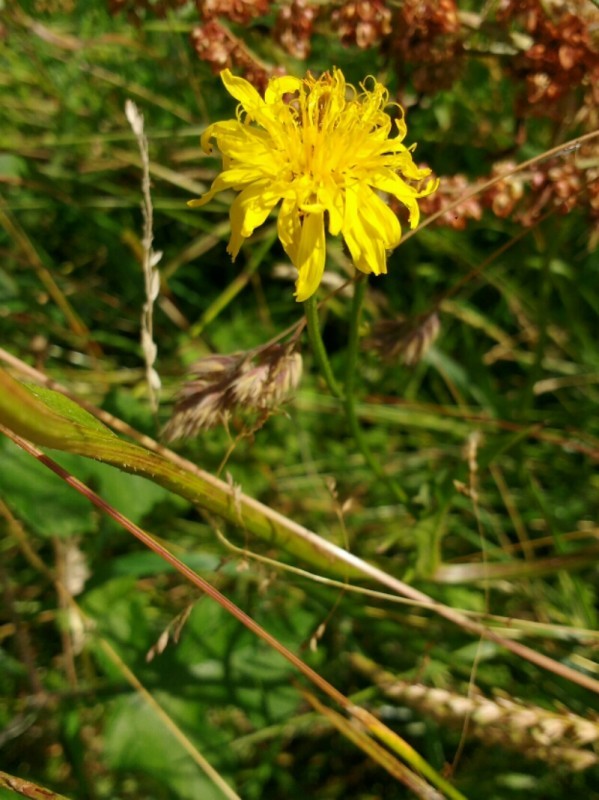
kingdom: Plantae
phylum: Tracheophyta
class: Magnoliopsida
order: Asterales
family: Asteraceae
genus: Crepis
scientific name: Crepis biennis
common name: Rough hawk's-beard
